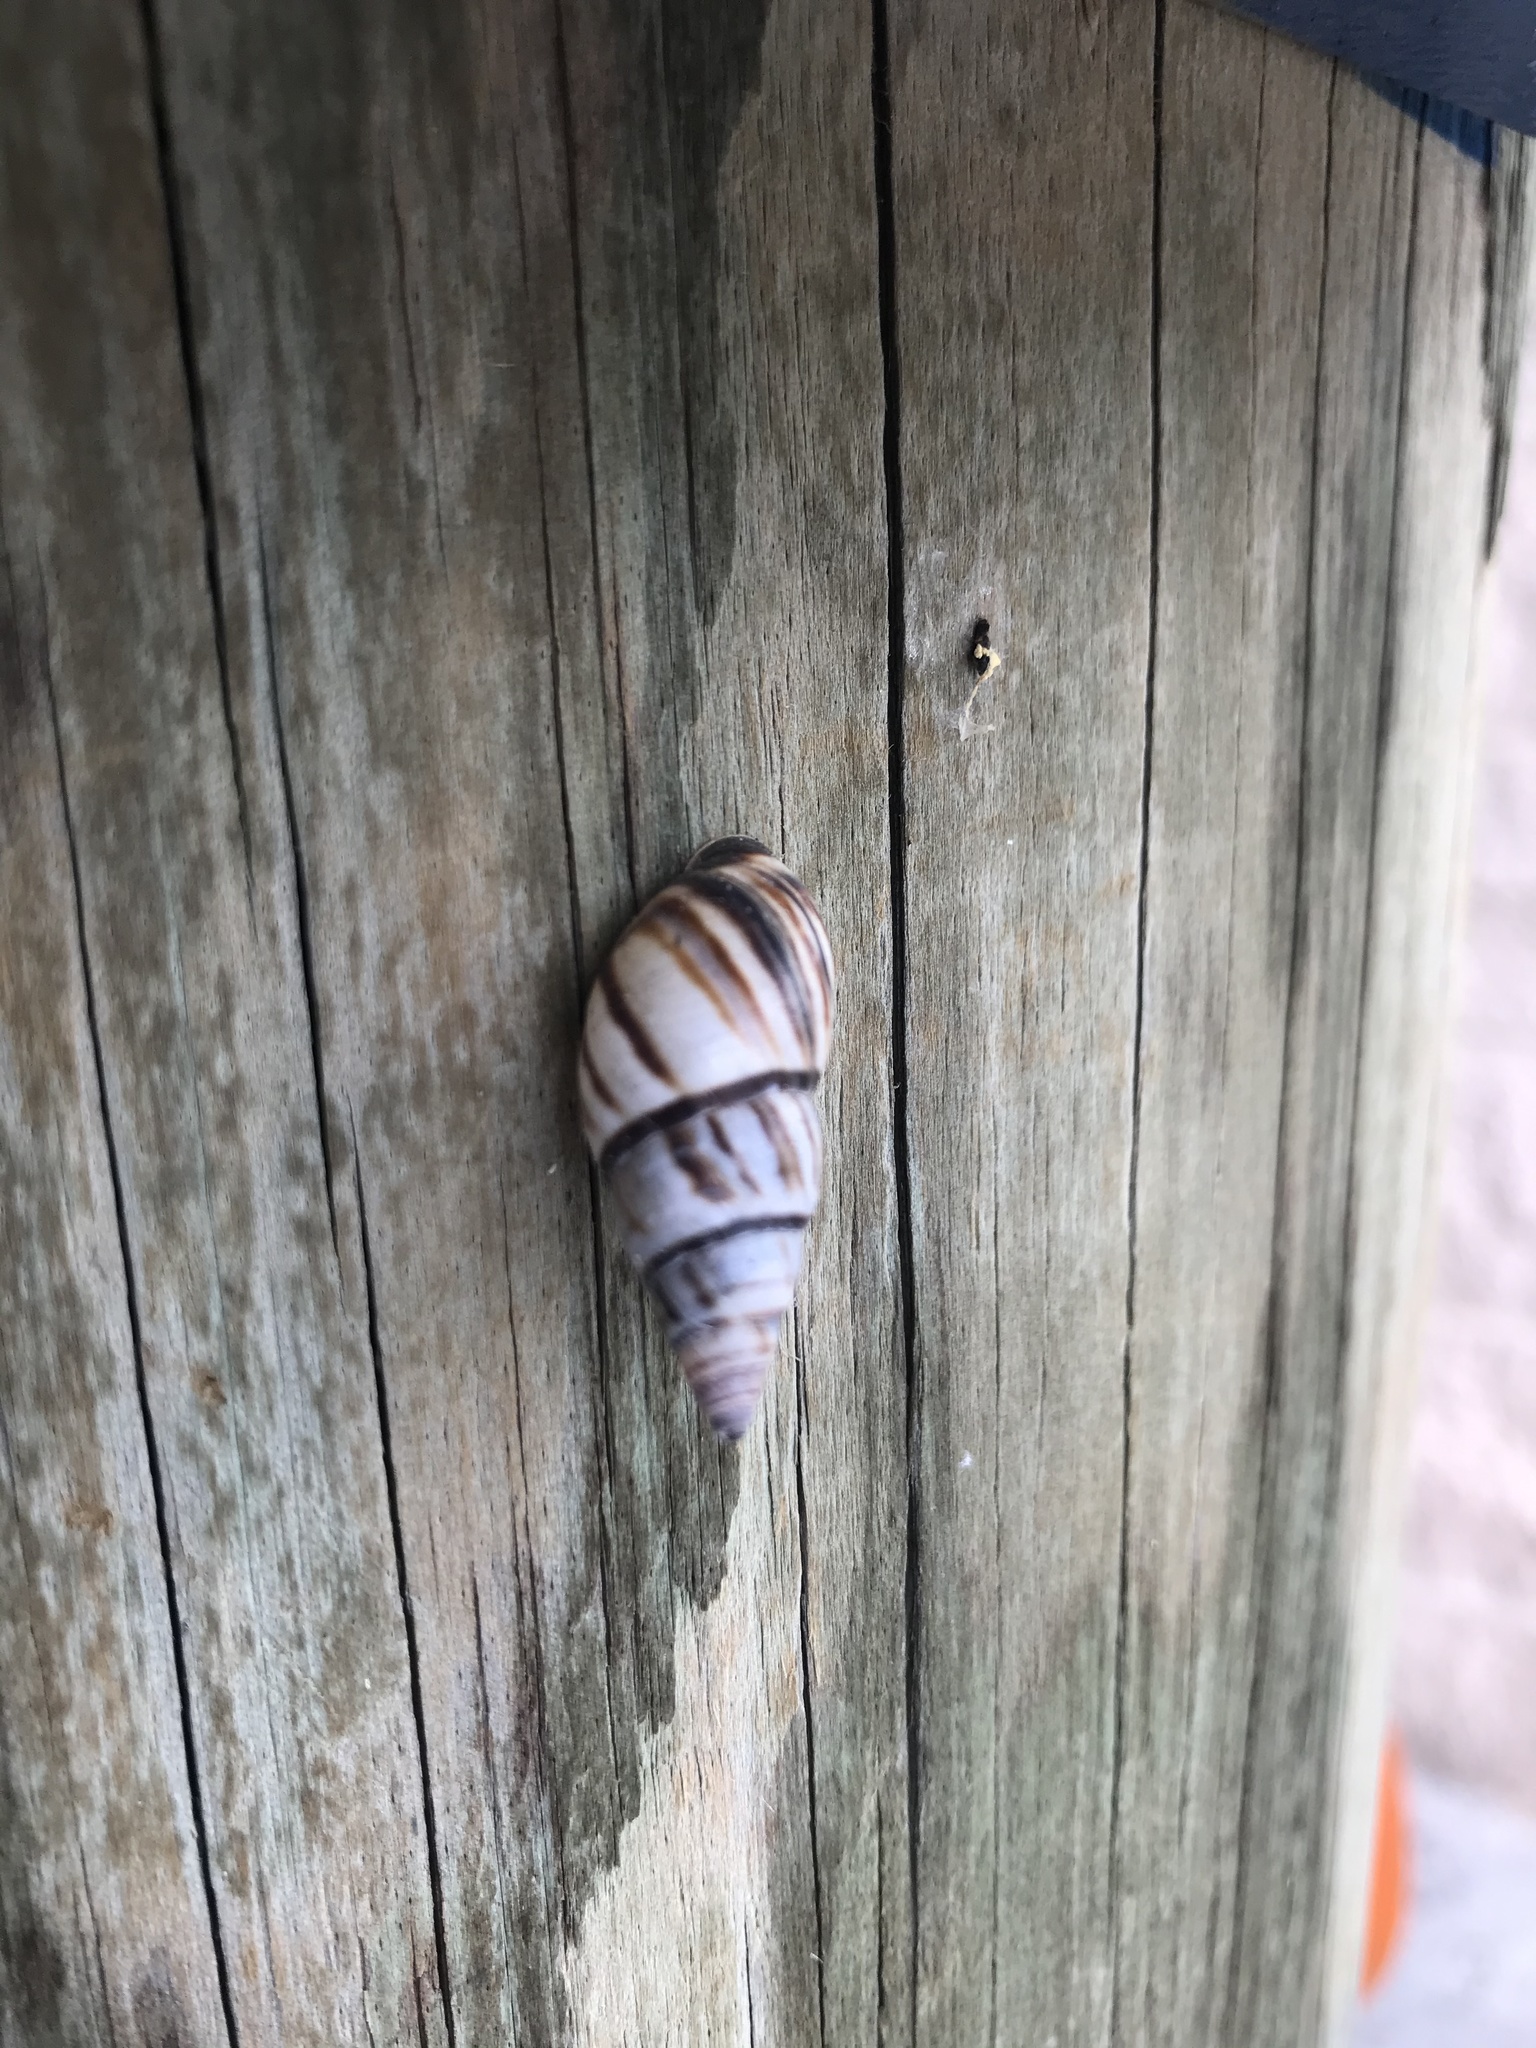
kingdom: Animalia
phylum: Mollusca
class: Gastropoda
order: Stylommatophora
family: Bulimulidae
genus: Drymaeus
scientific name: Drymaeus
